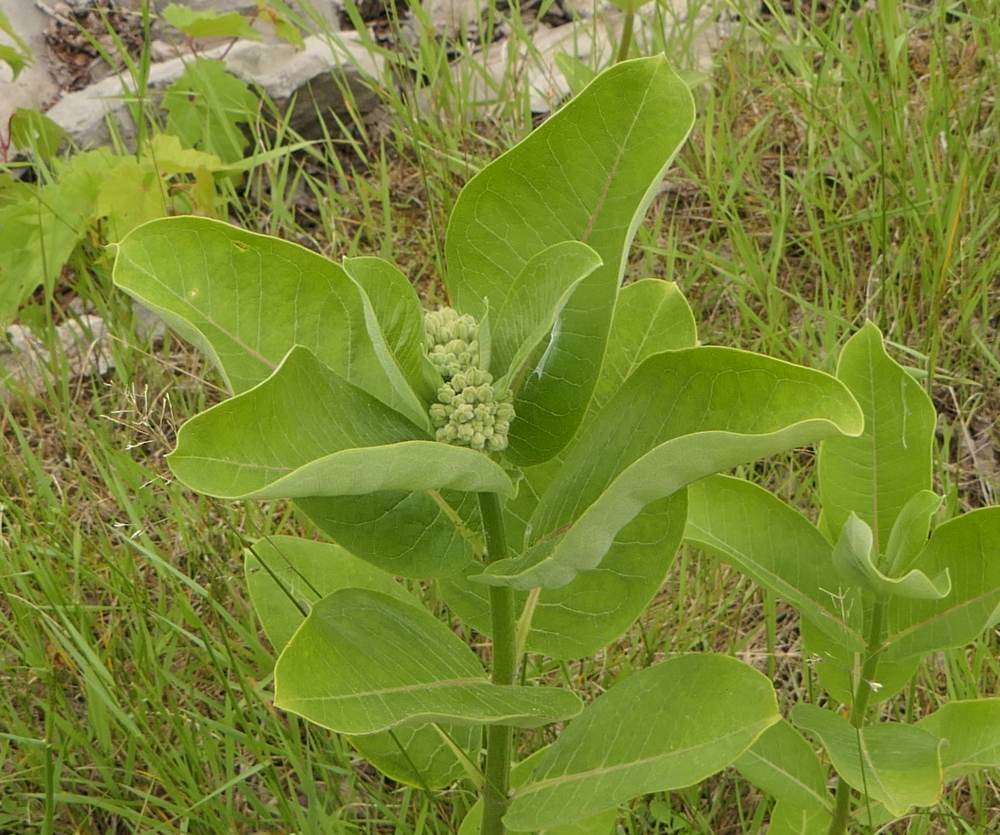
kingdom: Plantae
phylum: Tracheophyta
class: Magnoliopsida
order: Gentianales
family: Apocynaceae
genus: Asclepias
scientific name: Asclepias syriaca
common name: Common milkweed
